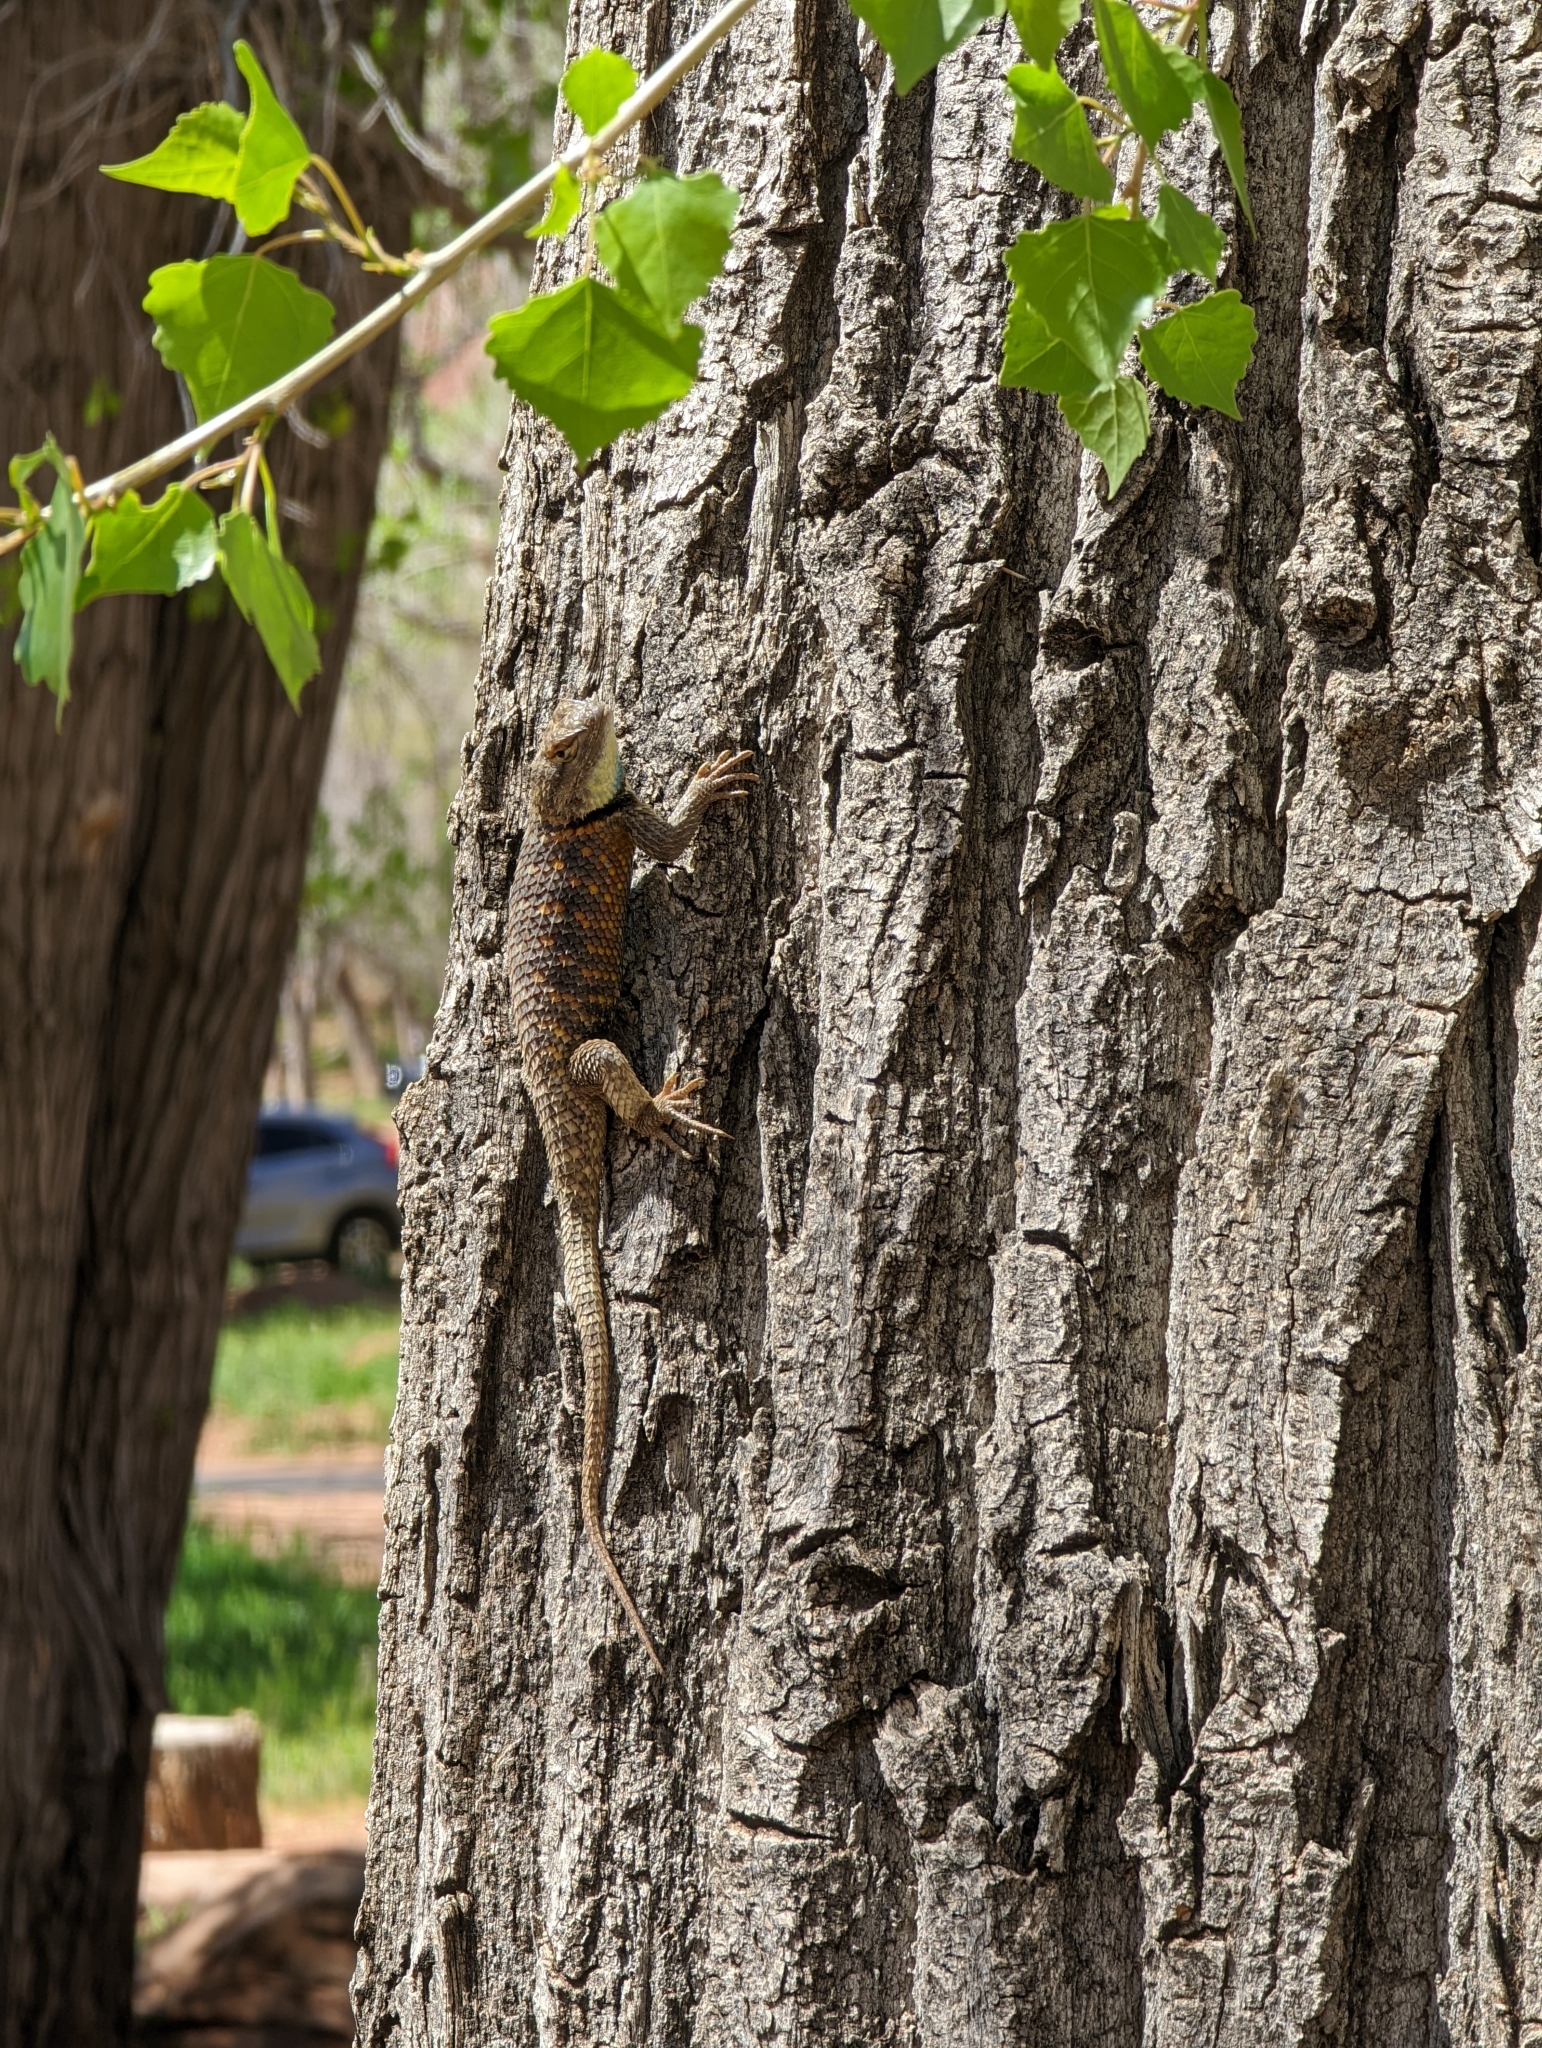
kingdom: Animalia
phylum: Chordata
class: Squamata
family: Phrynosomatidae
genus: Sceloporus
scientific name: Sceloporus uniformis
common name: Yellow-backed spiny lizard
